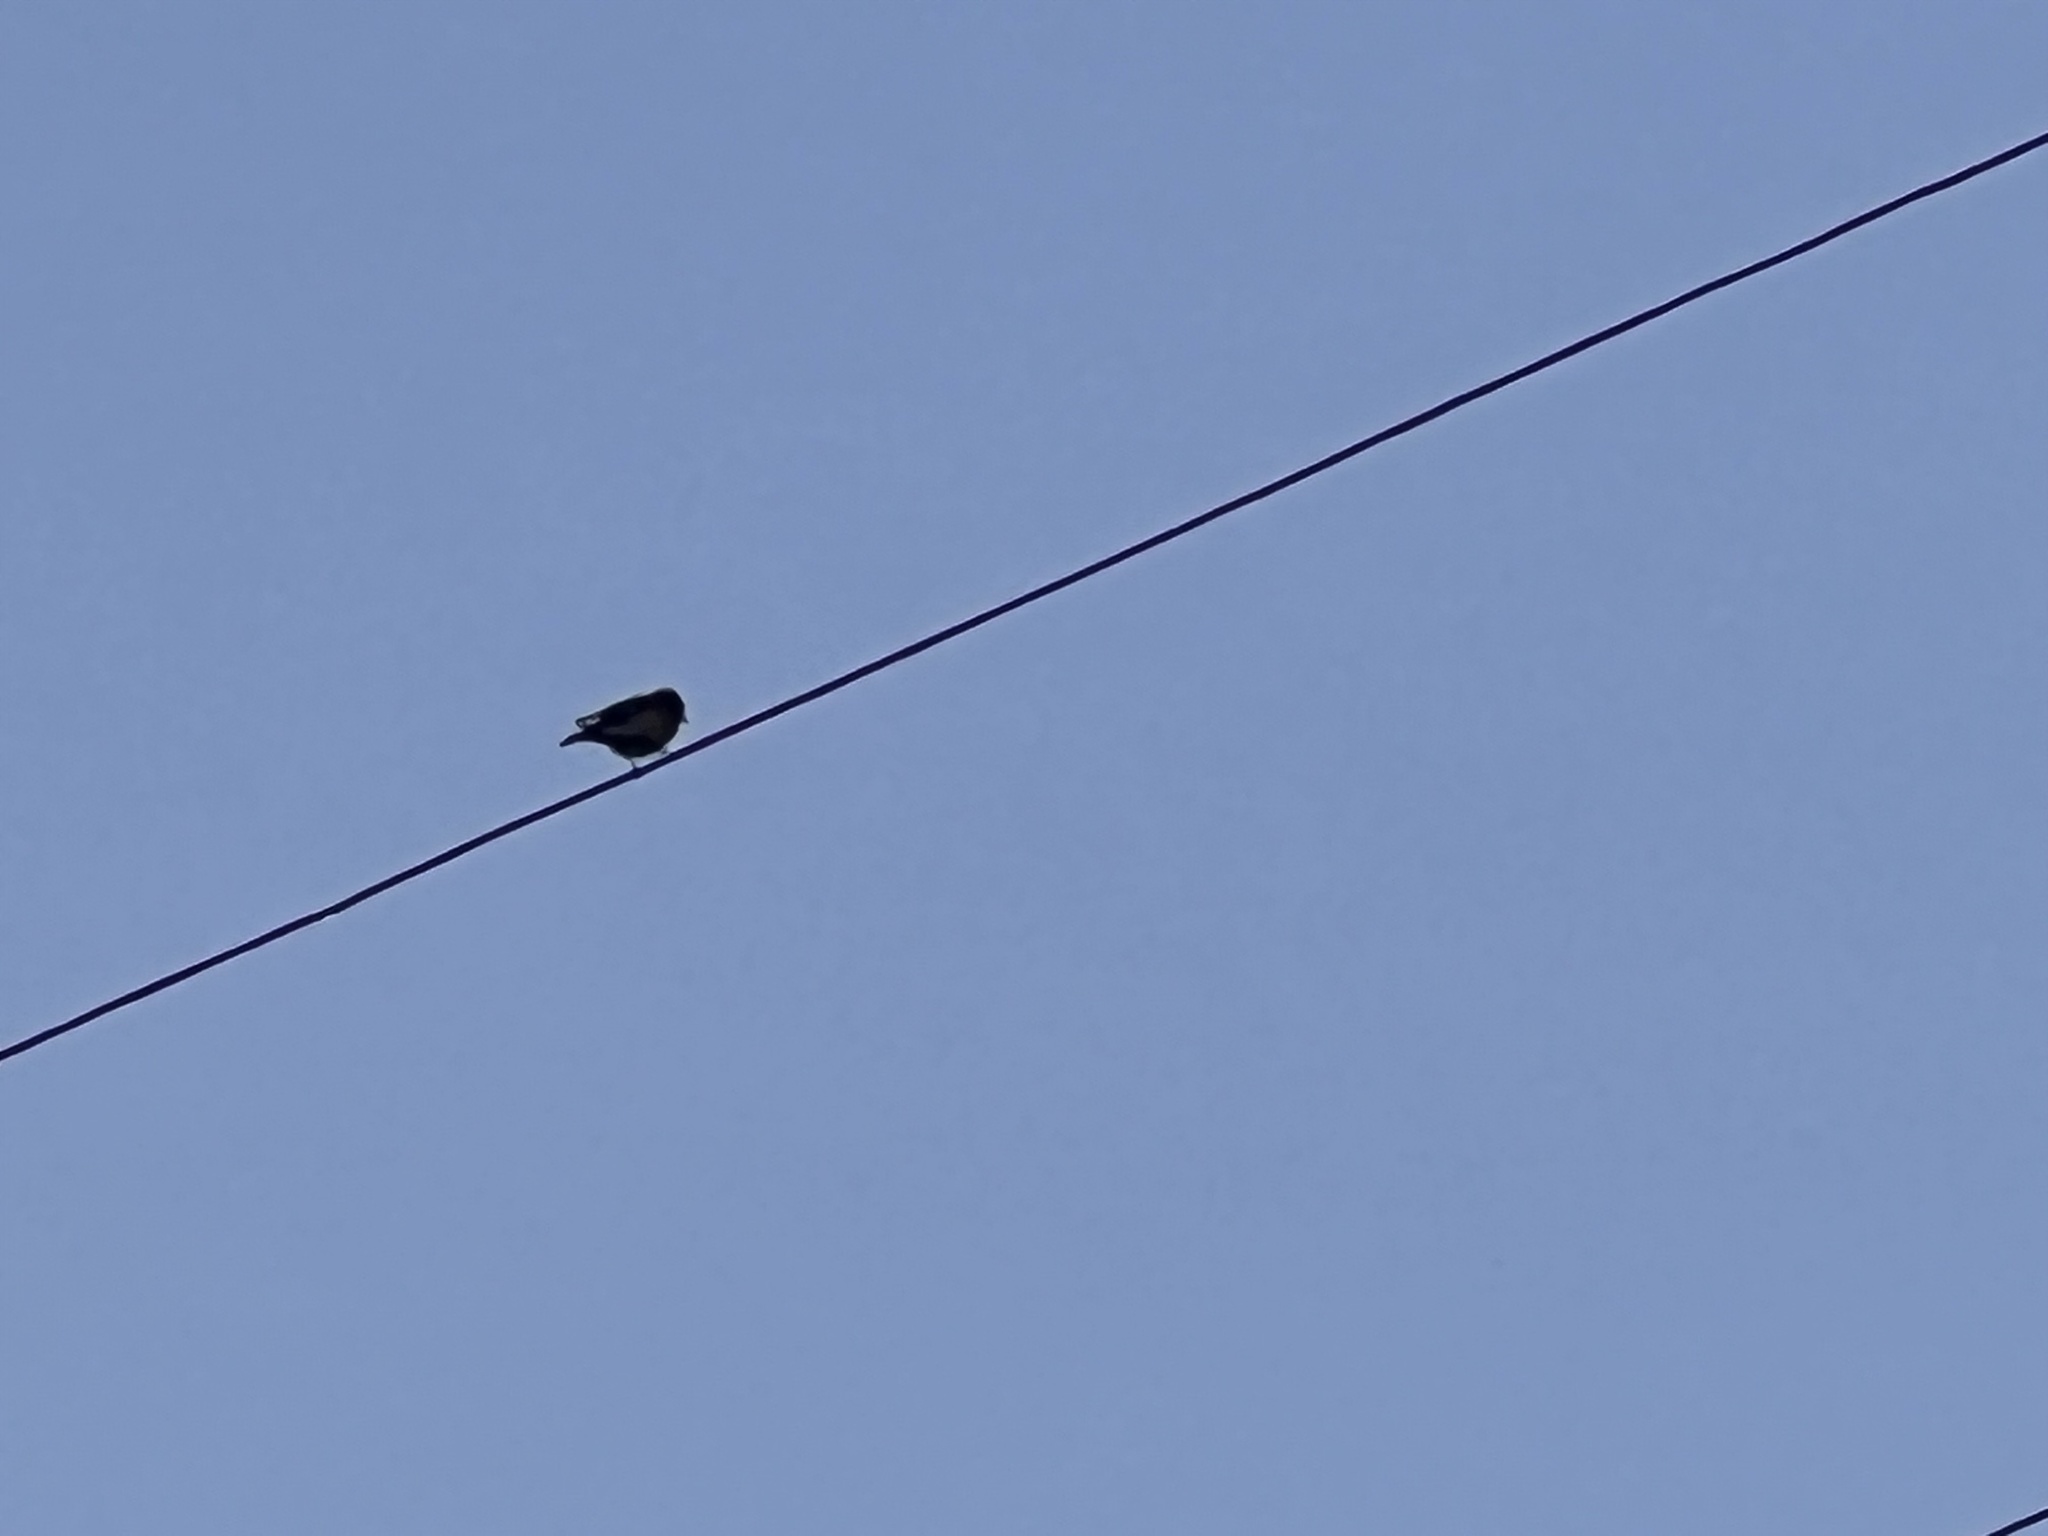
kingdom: Animalia
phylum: Chordata
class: Aves
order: Passeriformes
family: Turdidae
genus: Sialia
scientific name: Sialia mexicana
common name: Western bluebird
